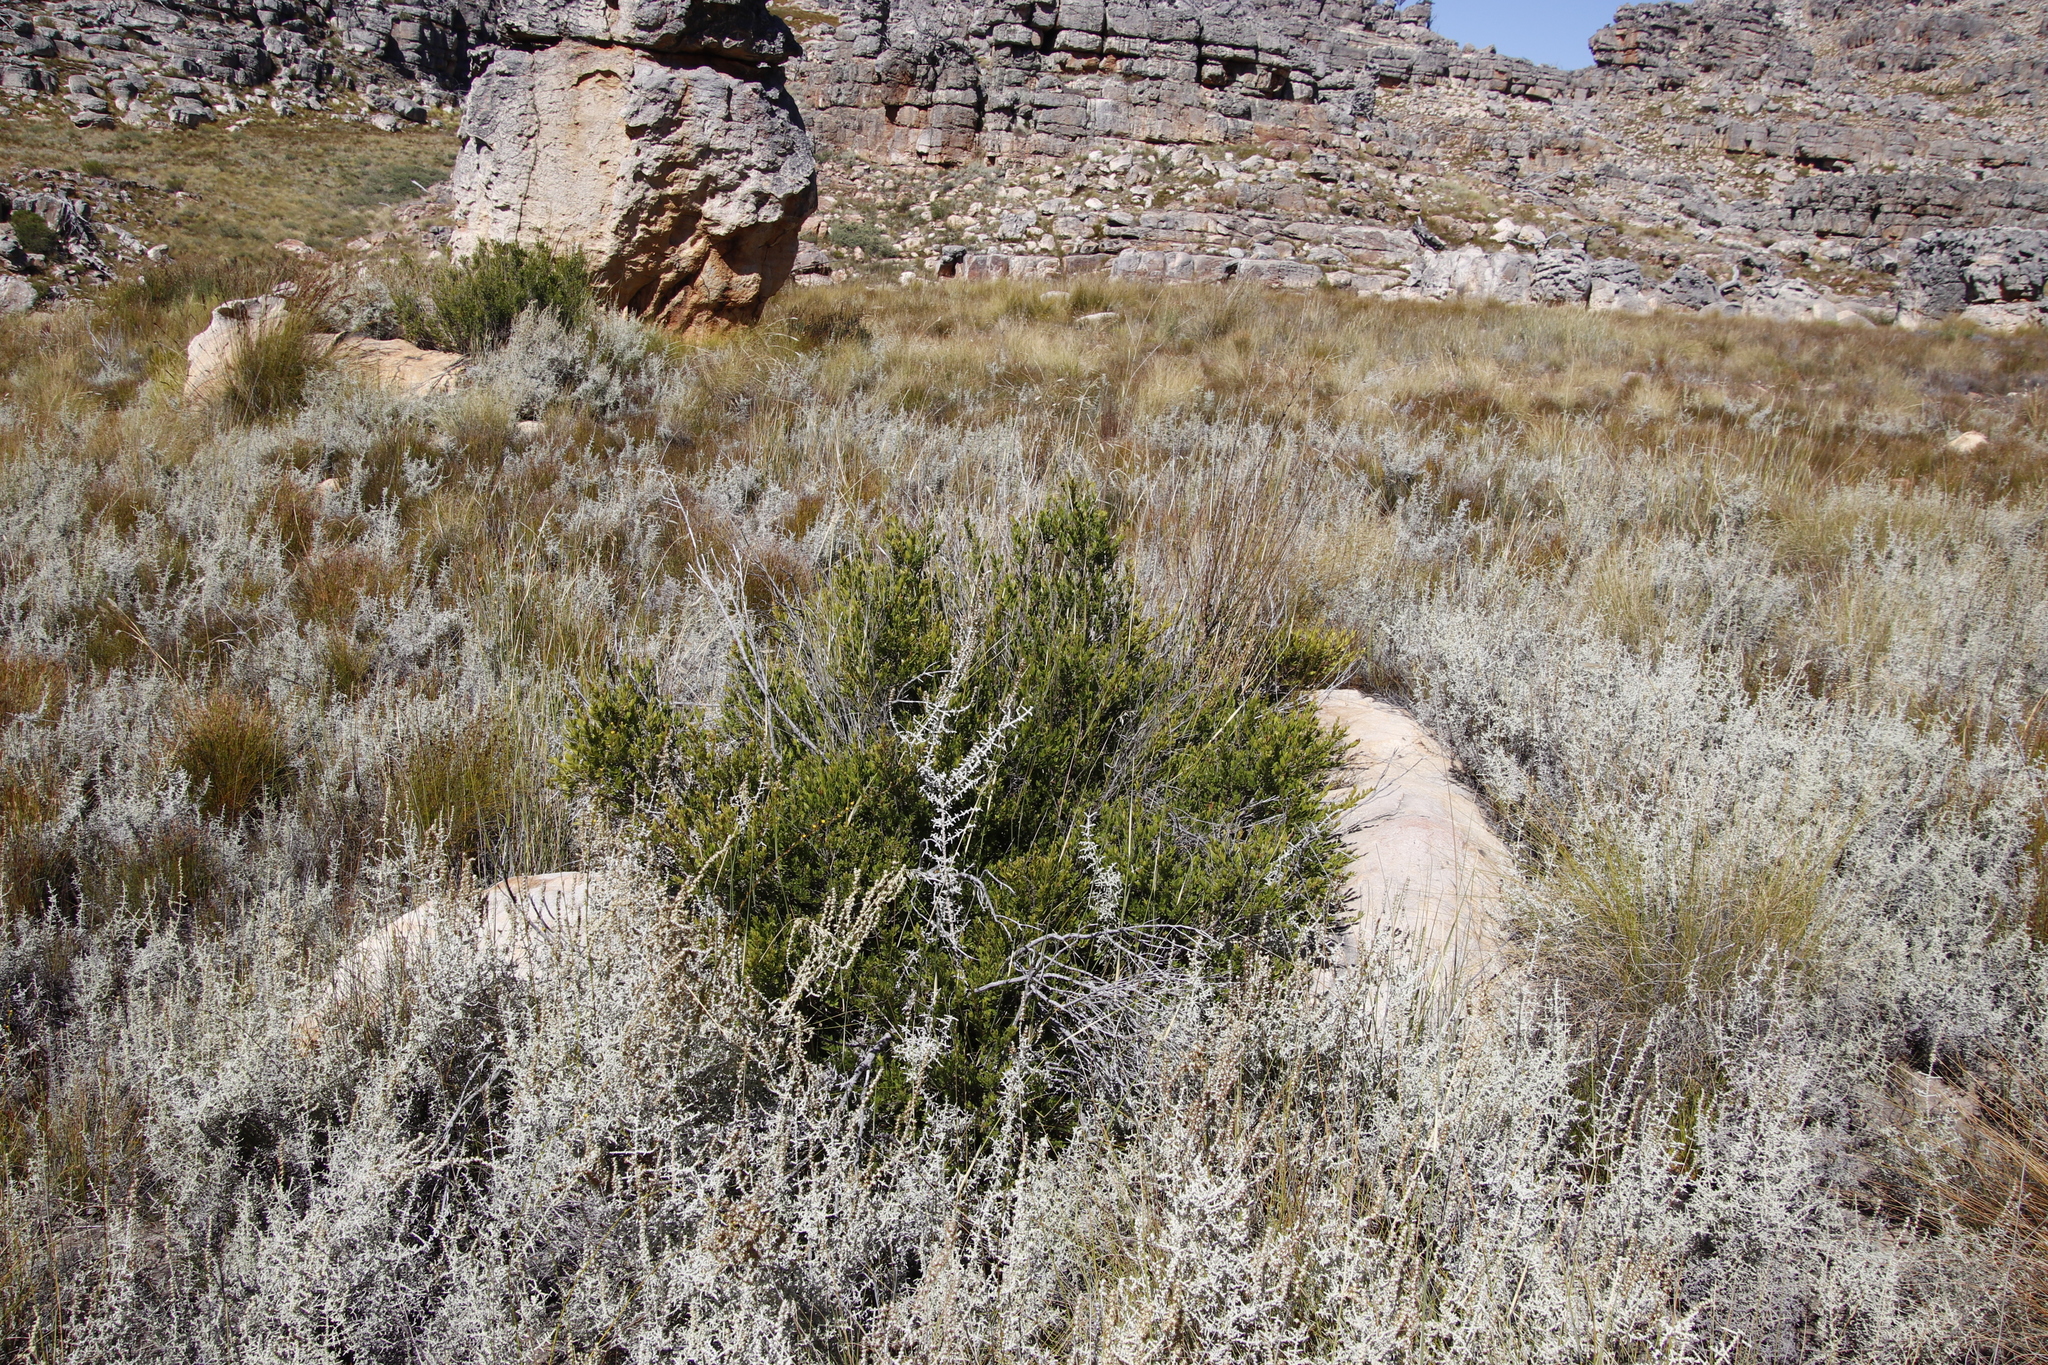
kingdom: Plantae
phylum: Tracheophyta
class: Magnoliopsida
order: Ericales
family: Ebenaceae
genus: Diospyros
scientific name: Diospyros glabra
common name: Fynbos star apple
